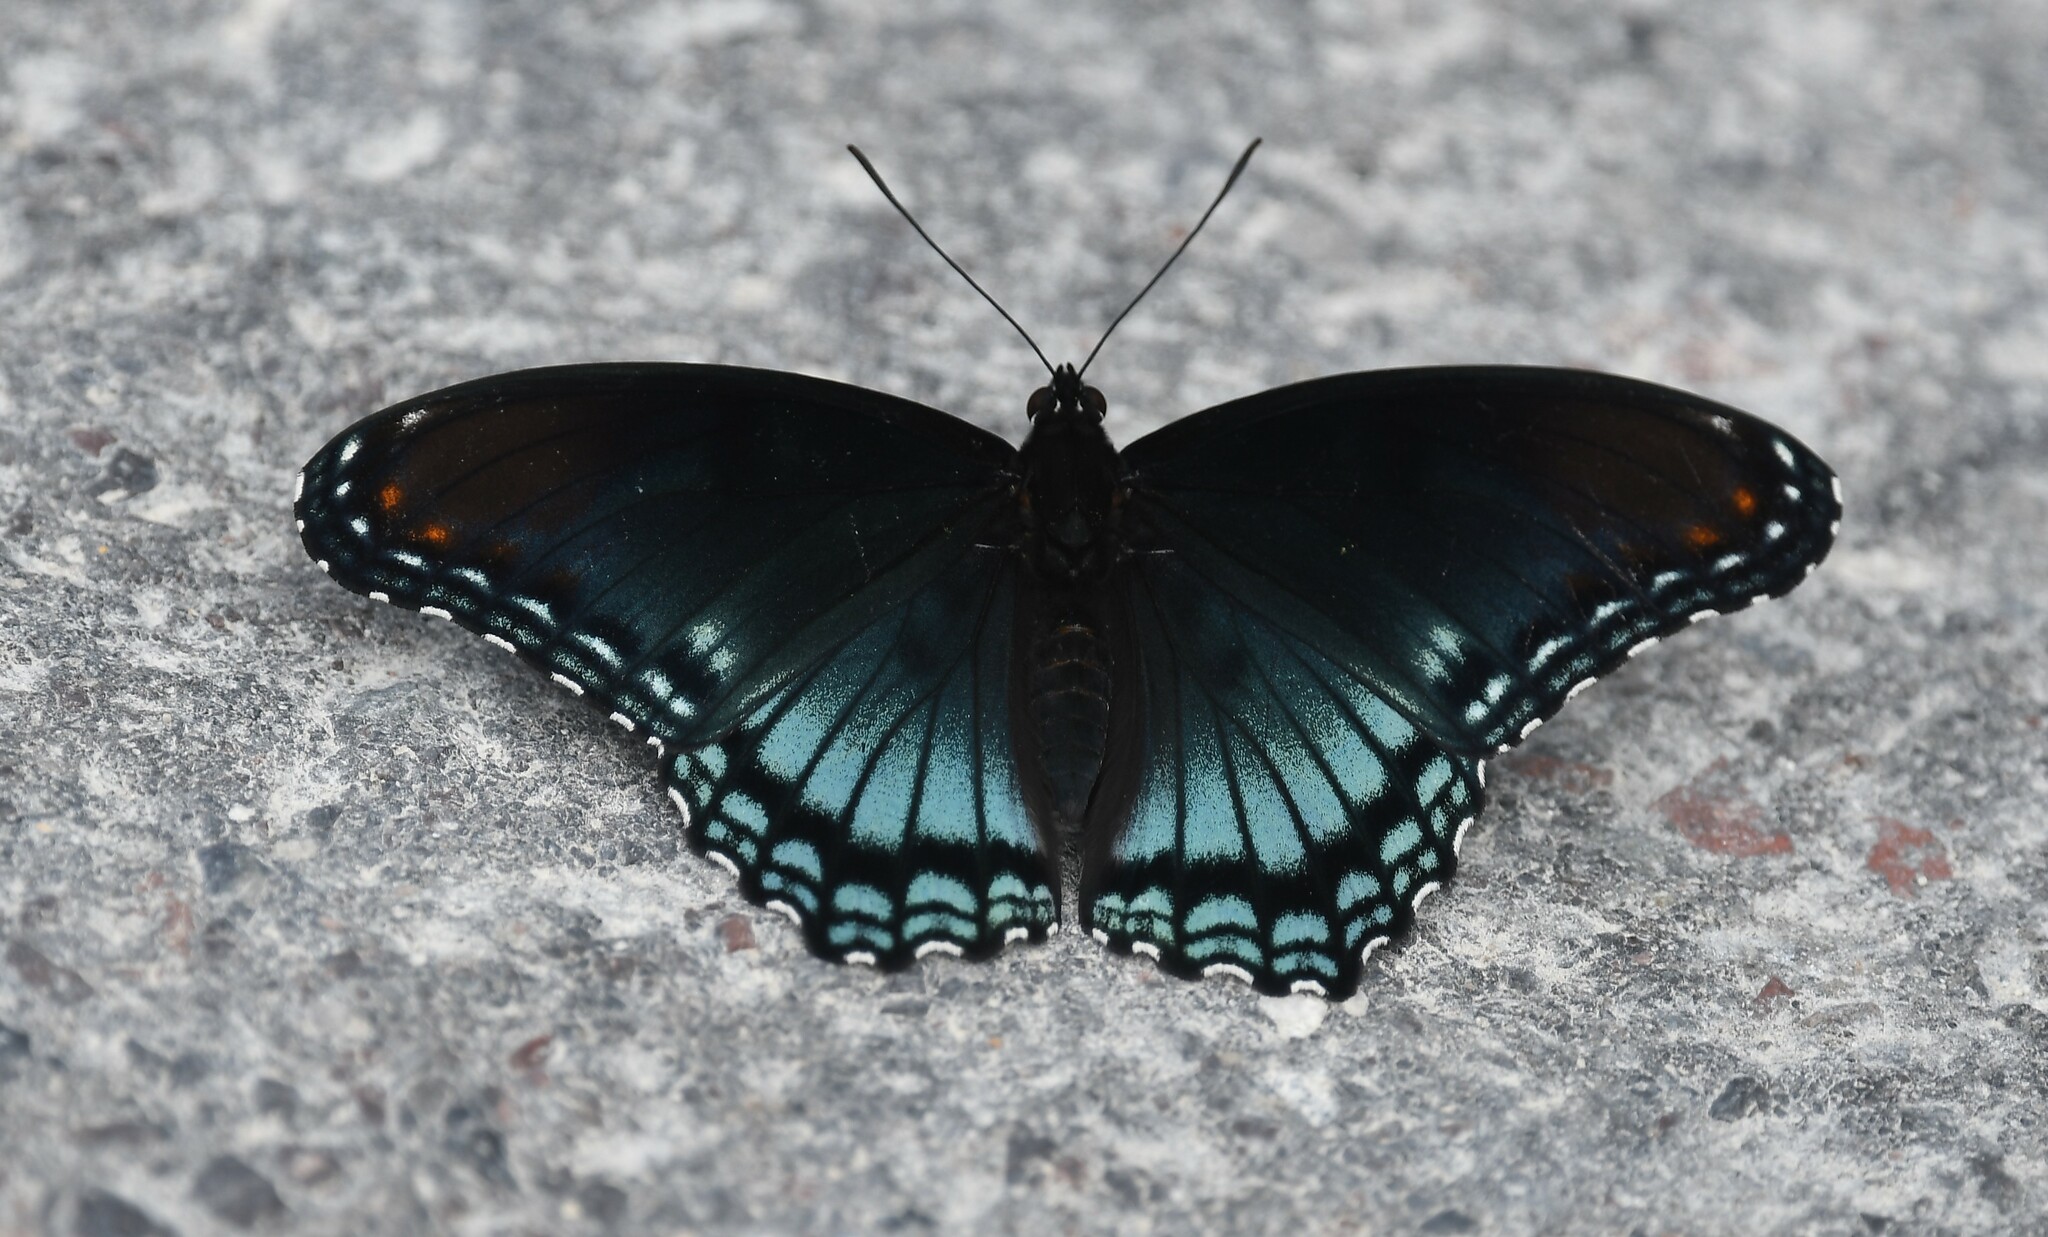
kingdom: Animalia
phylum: Arthropoda
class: Insecta
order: Lepidoptera
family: Nymphalidae
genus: Limenitis
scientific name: Limenitis astyanax
